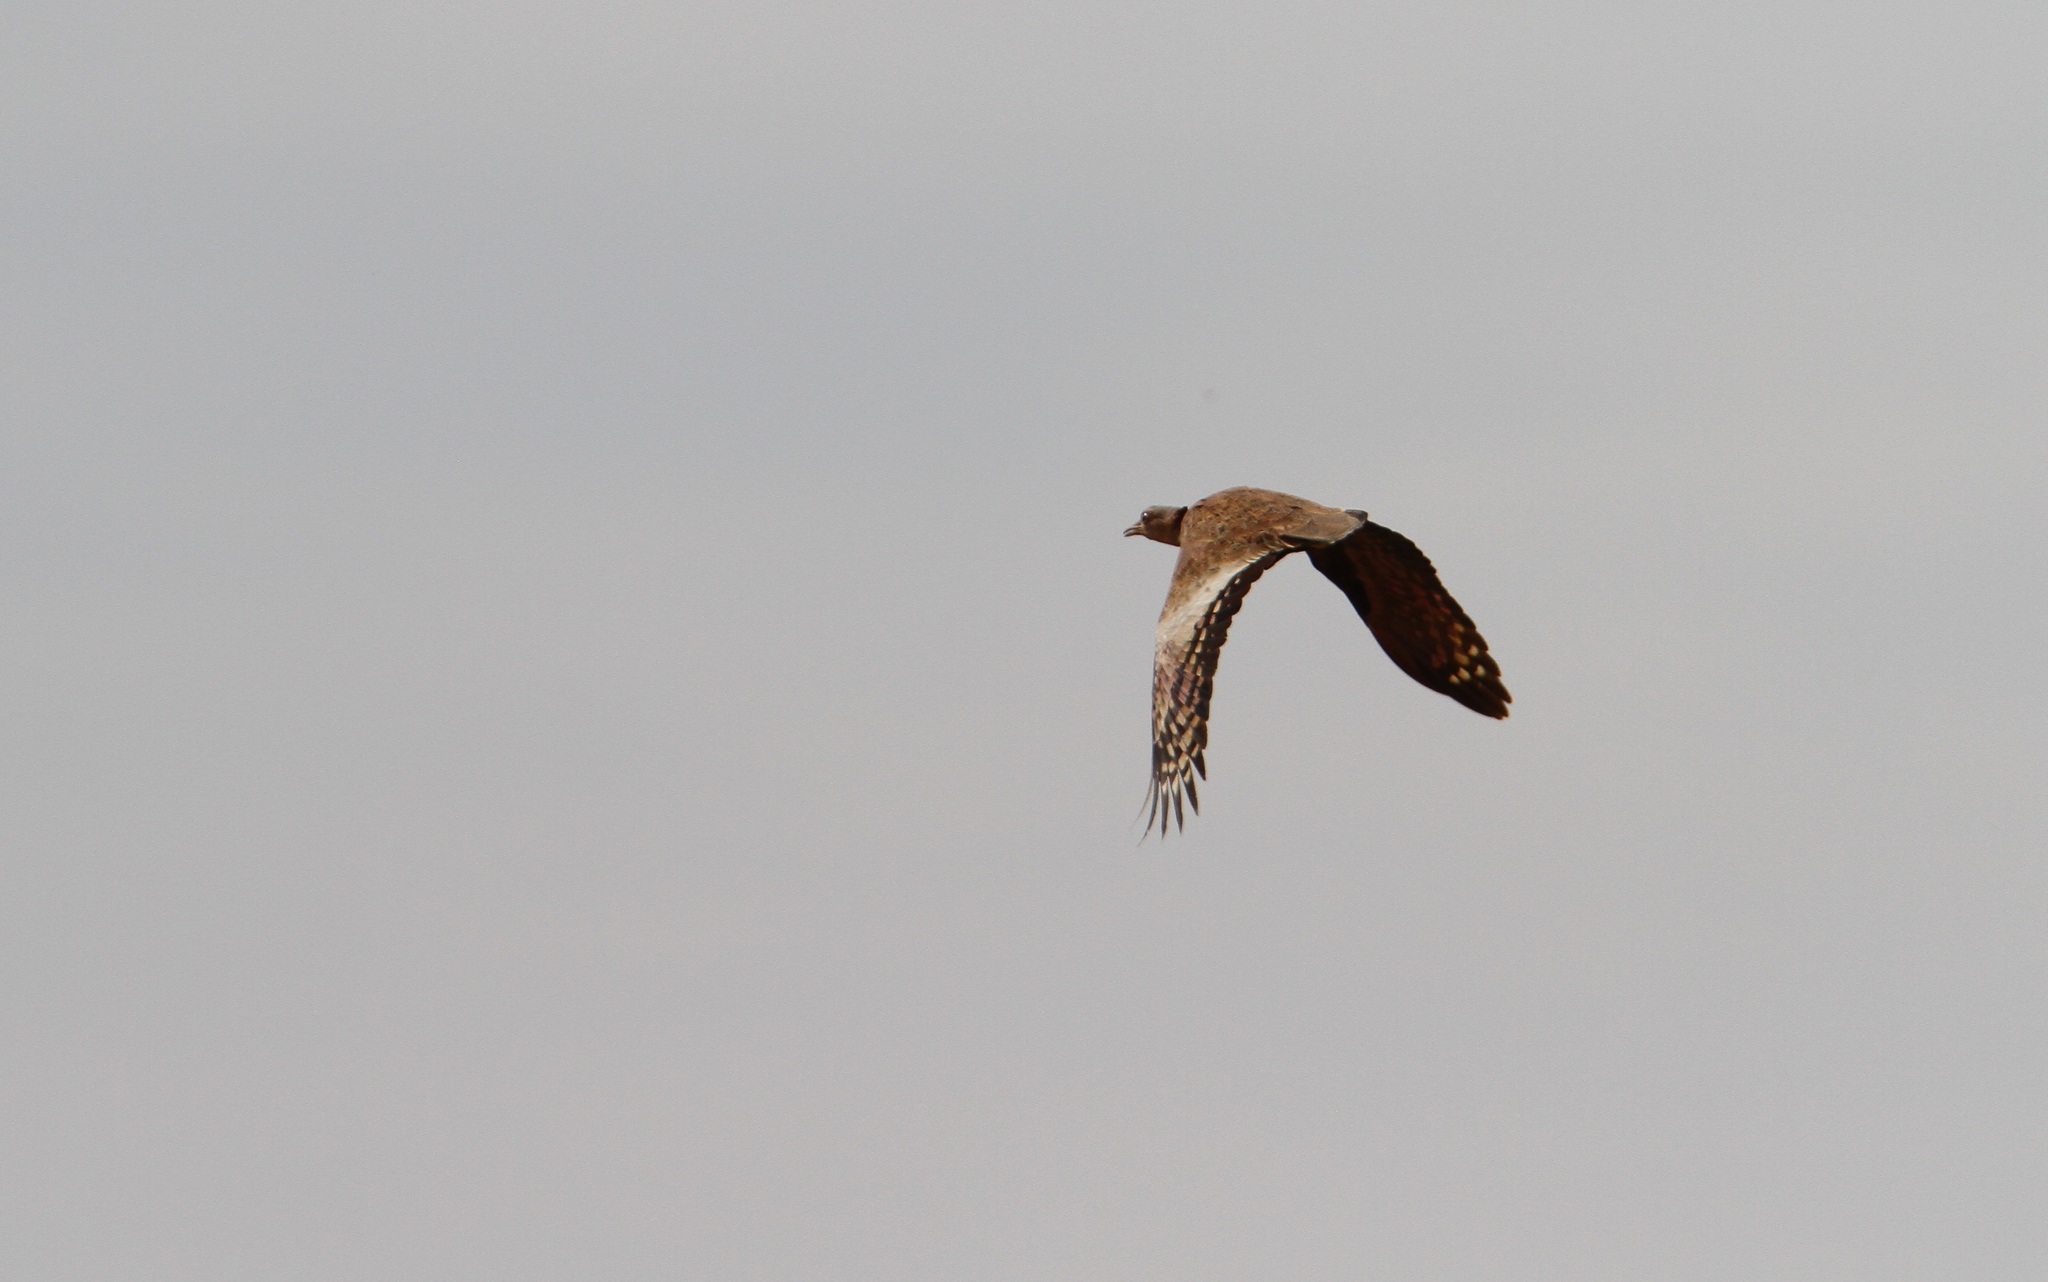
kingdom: Animalia
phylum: Chordata
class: Aves
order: Otidiformes
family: Otididae
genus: Lophotis
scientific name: Lophotis savilei
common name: Savile's bustard
